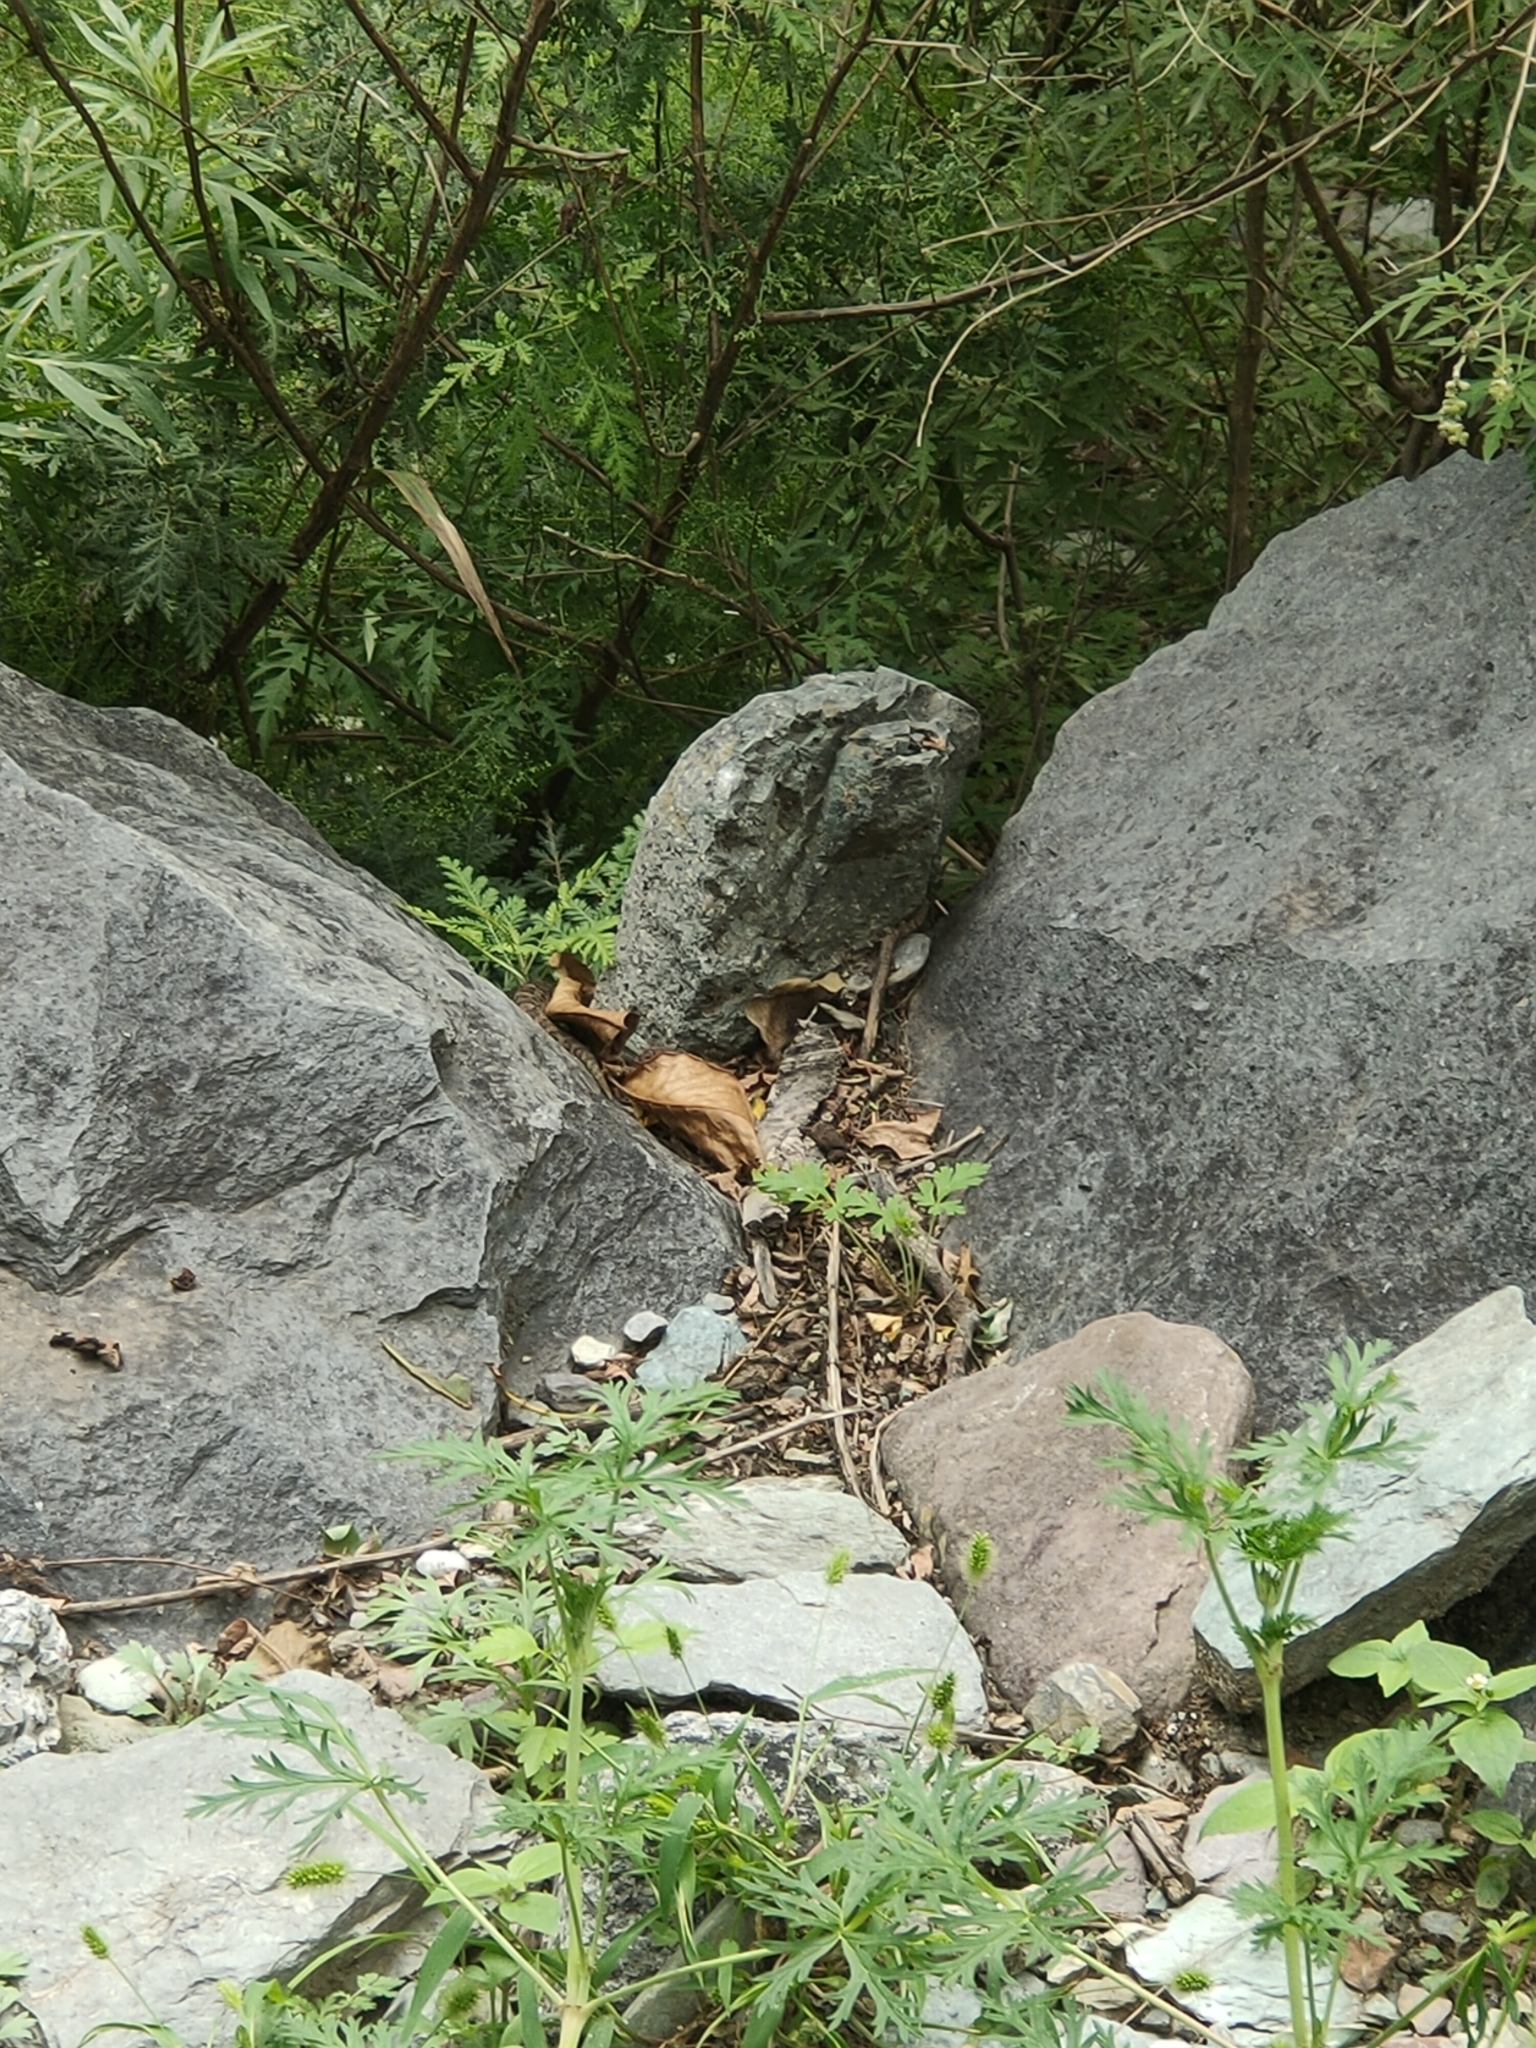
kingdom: Animalia
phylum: Chordata
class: Squamata
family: Viperidae
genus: Gloydius
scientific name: Gloydius brevicauda
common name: Short-tailed mamushi
